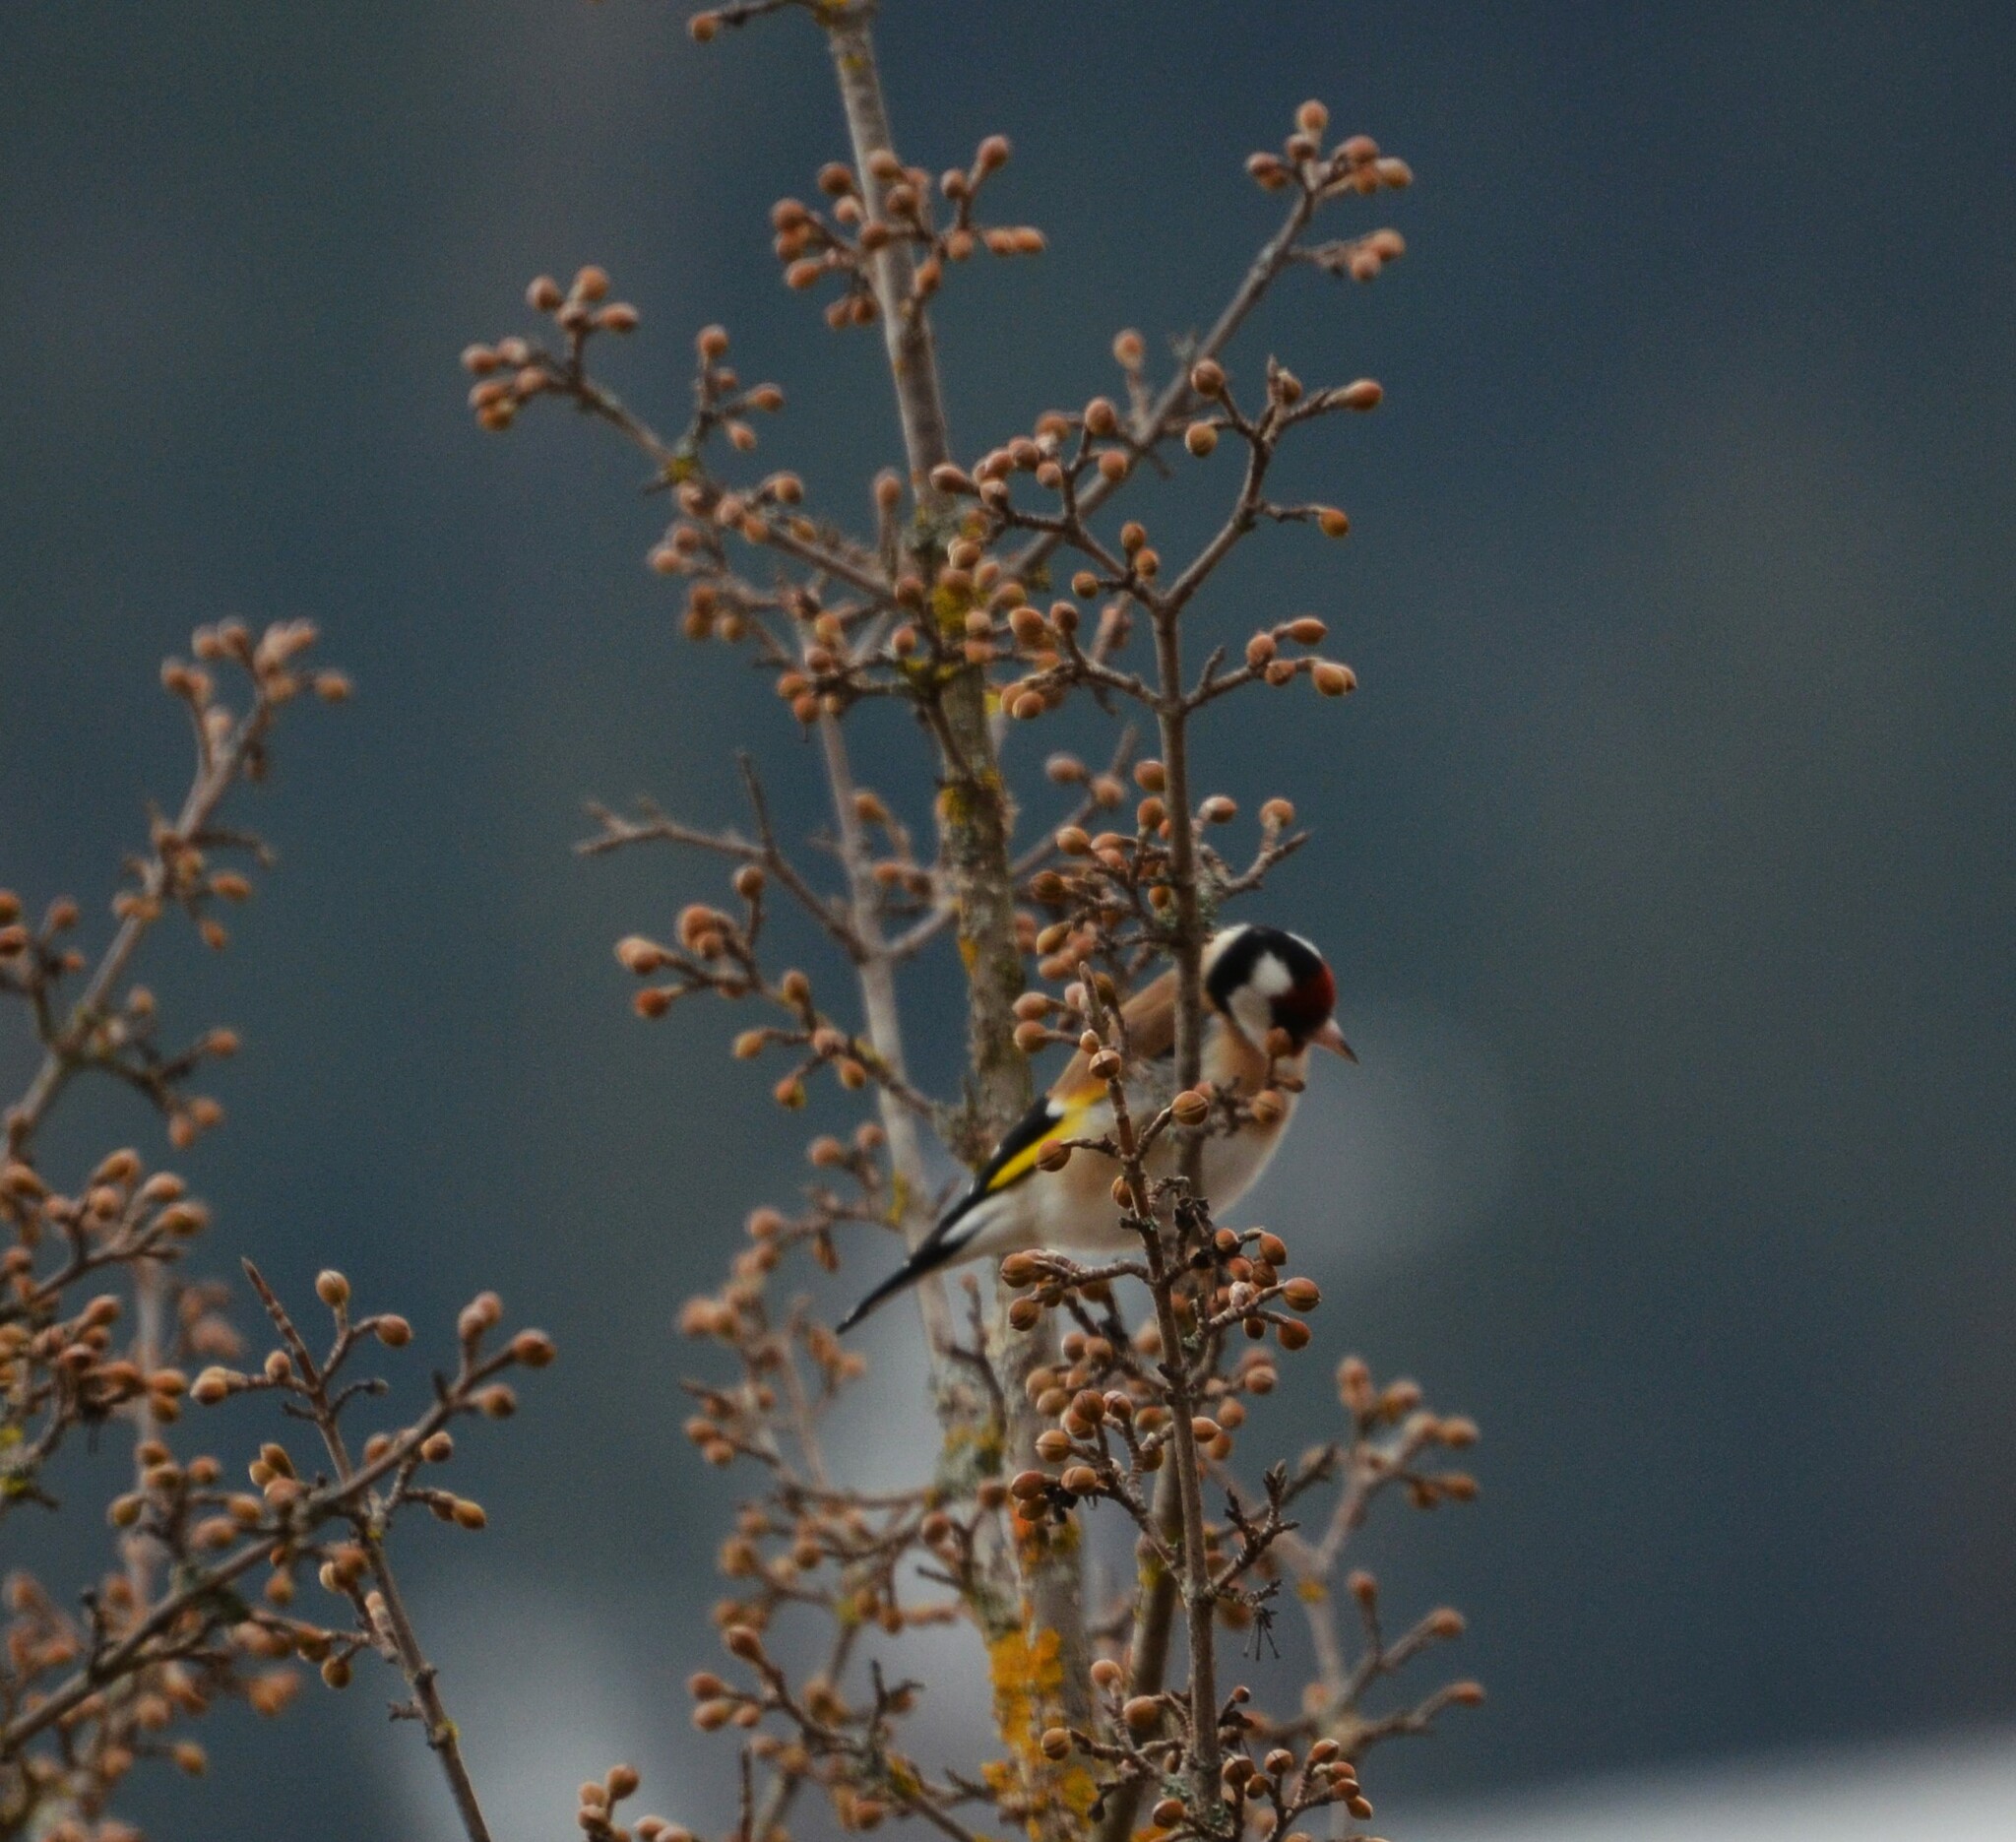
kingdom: Animalia
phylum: Chordata
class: Aves
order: Passeriformes
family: Fringillidae
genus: Carduelis
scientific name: Carduelis carduelis
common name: European goldfinch
